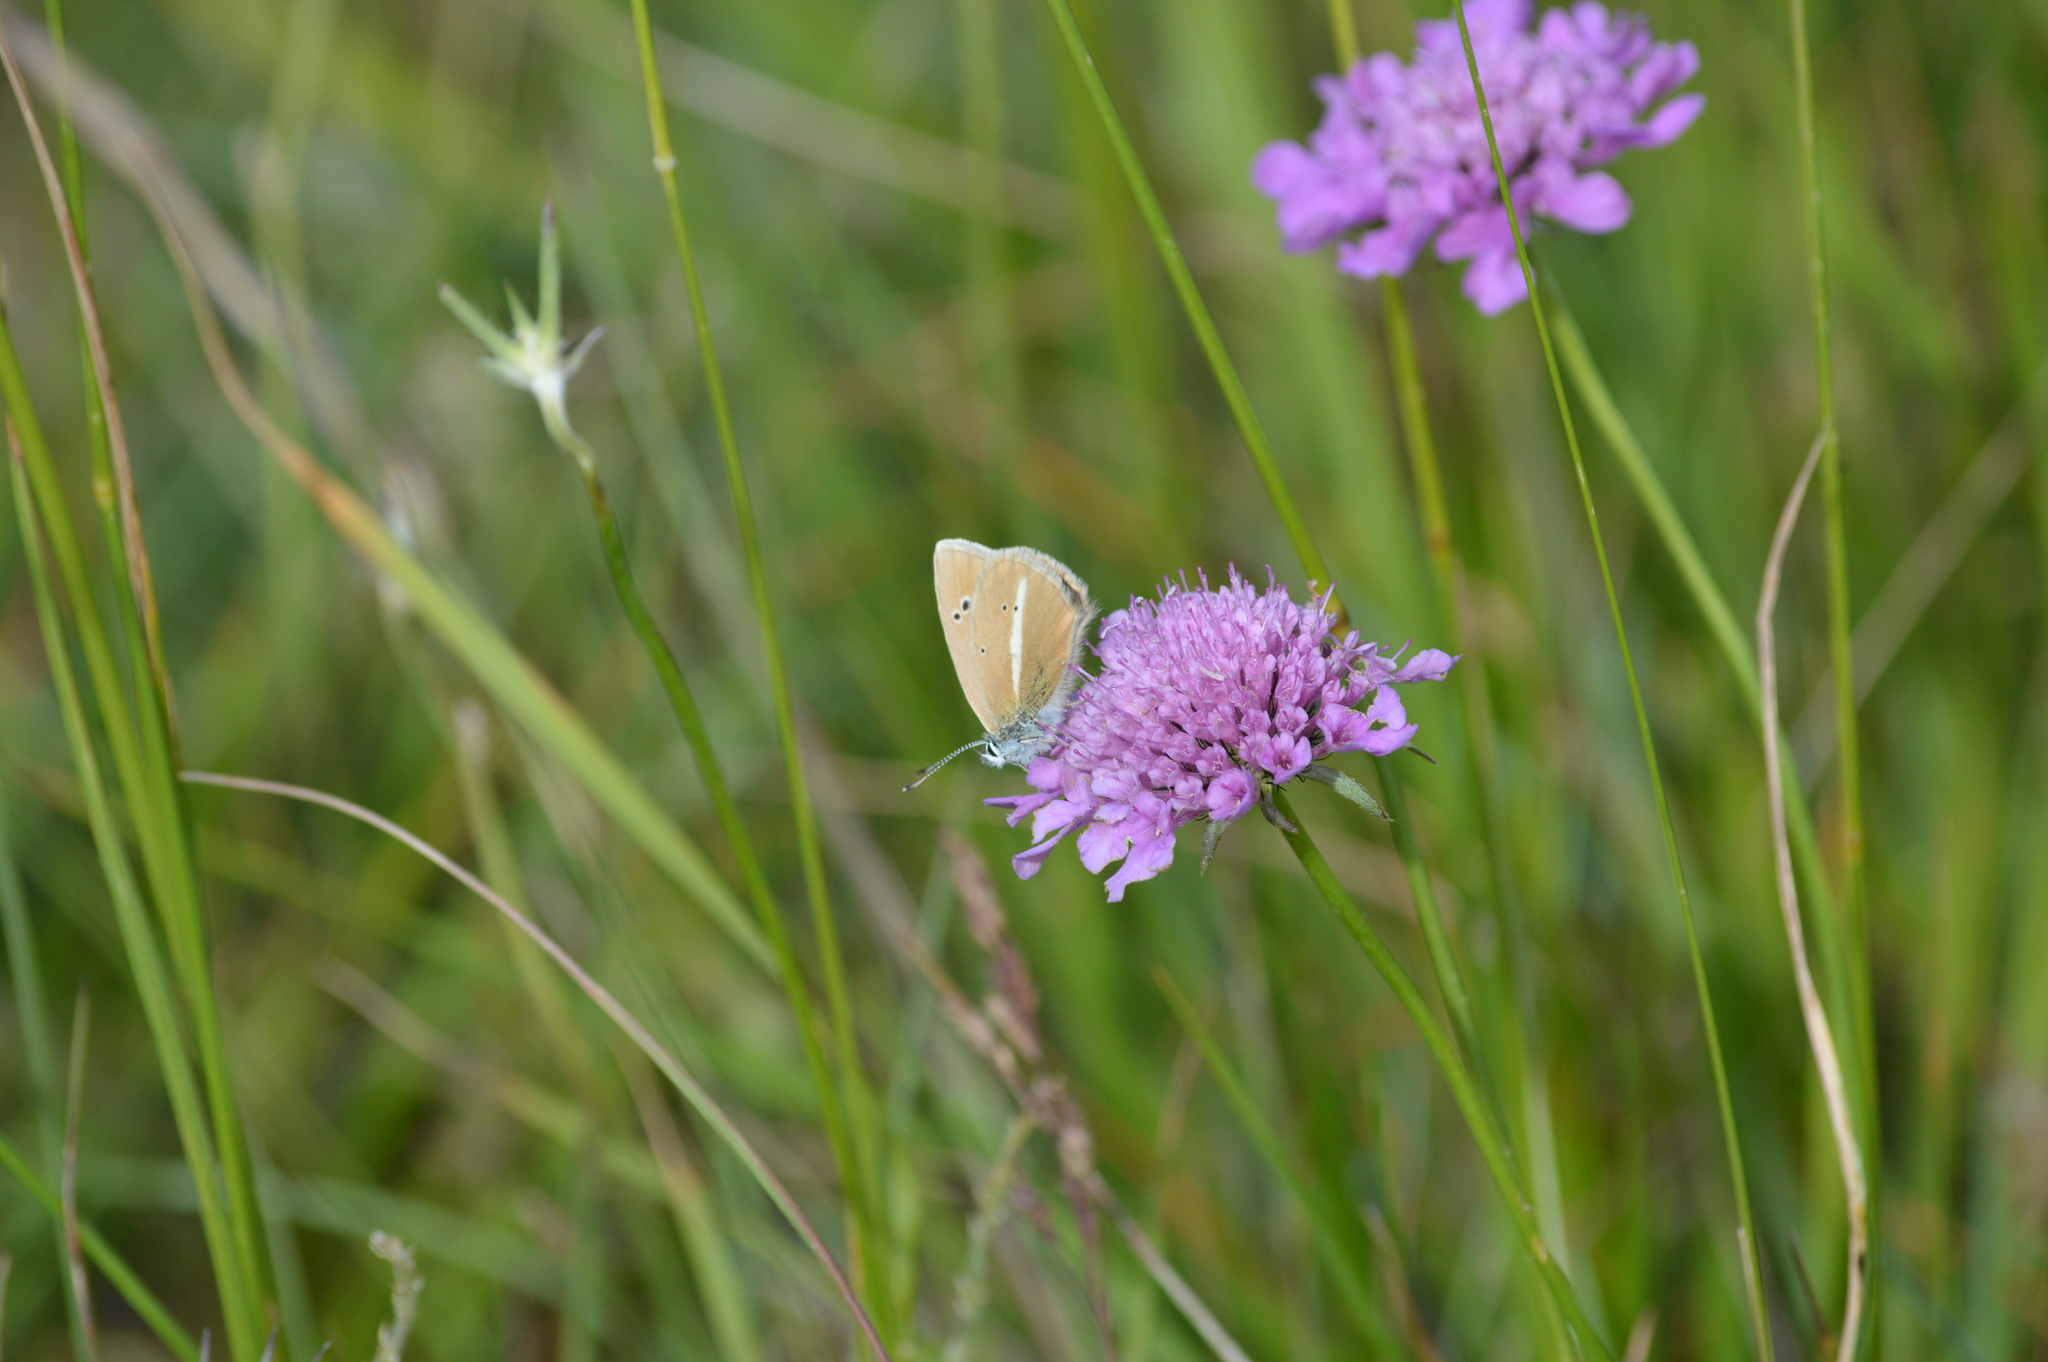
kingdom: Animalia
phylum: Arthropoda
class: Insecta
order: Lepidoptera
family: Lycaenidae
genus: Agrodiaetus
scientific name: Agrodiaetus damon
